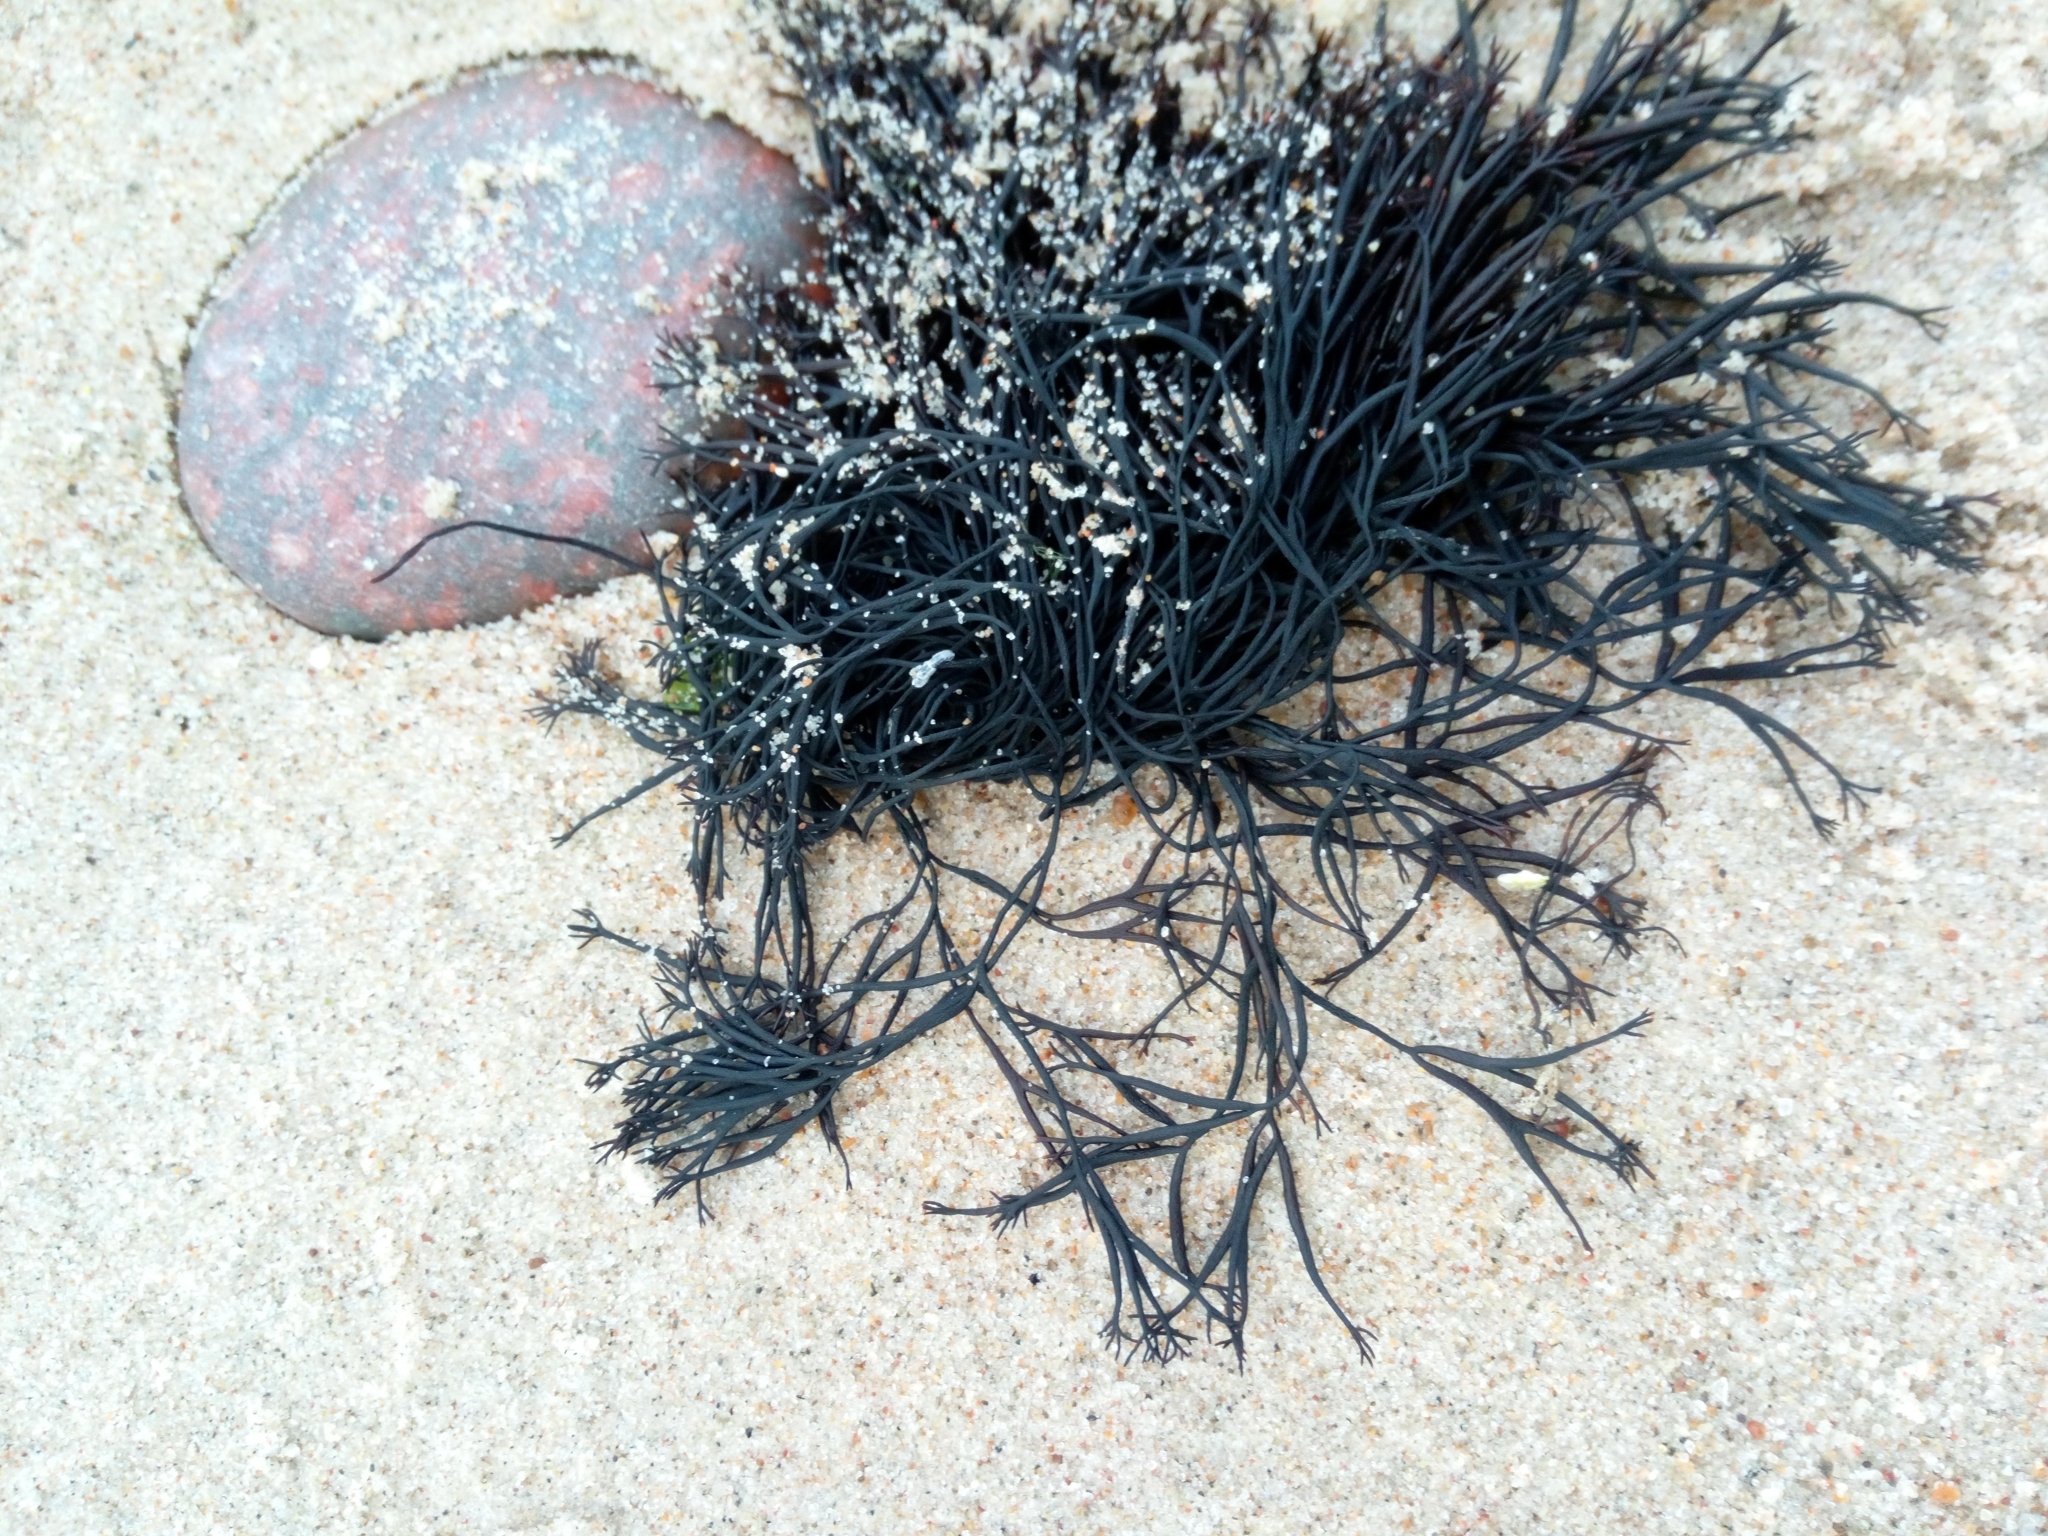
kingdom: Plantae
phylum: Rhodophyta
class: Florideophyceae
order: Gigartinales
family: Furcellariaceae
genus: Furcellaria
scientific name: Furcellaria lumbricalis
